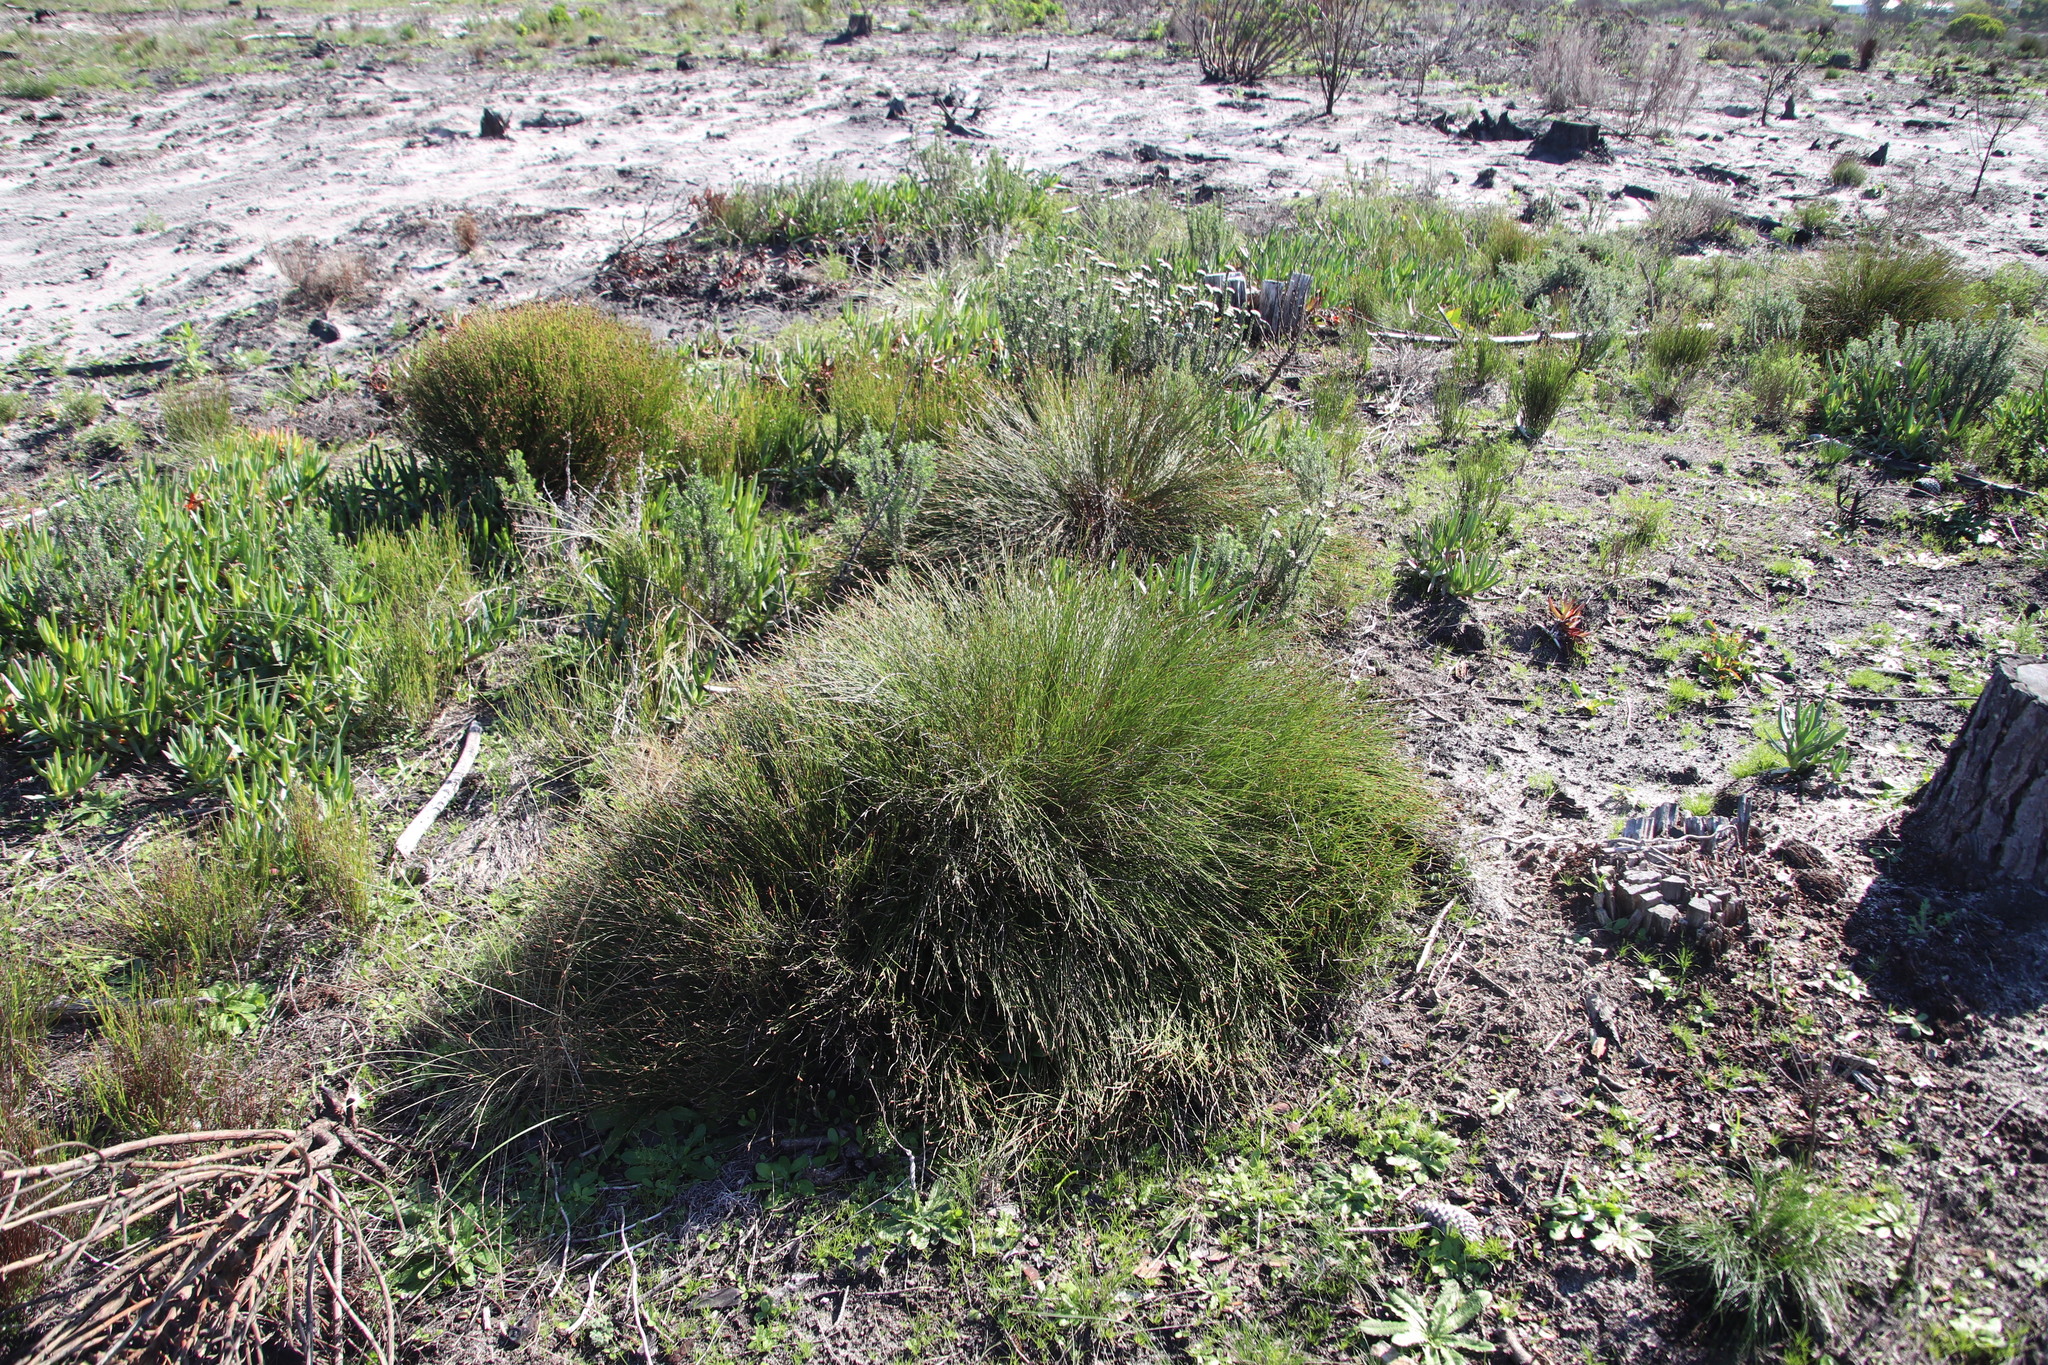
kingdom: Plantae
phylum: Tracheophyta
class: Liliopsida
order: Poales
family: Restionaceae
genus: Mastersiella
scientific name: Mastersiella digitata
